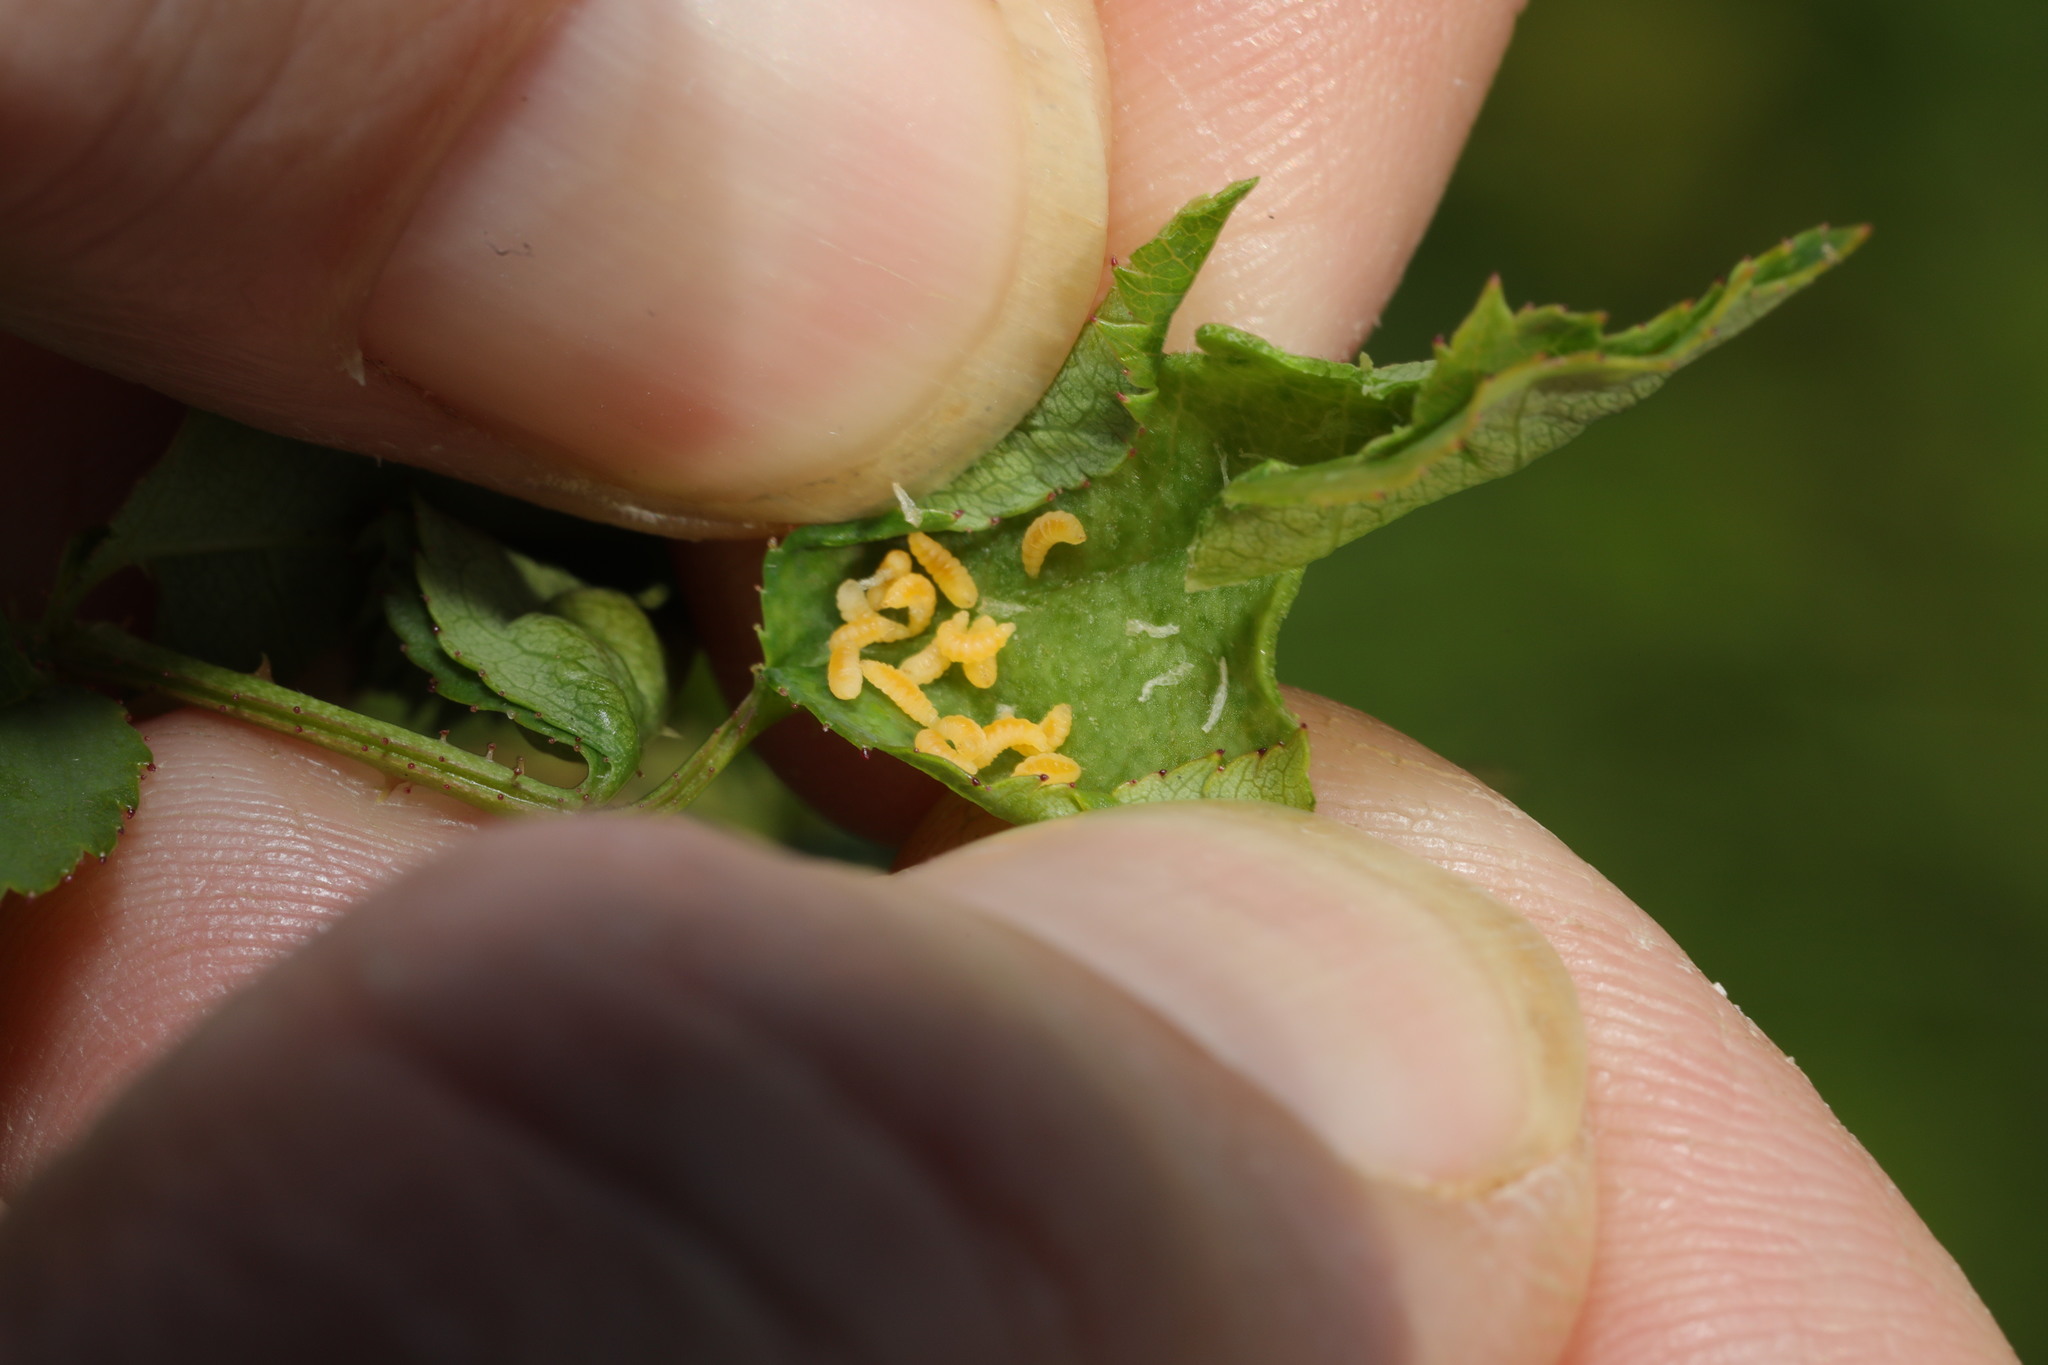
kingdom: Animalia
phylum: Arthropoda
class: Insecta
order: Diptera
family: Cecidomyiidae
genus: Wachtliella
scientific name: Wachtliella rosae
